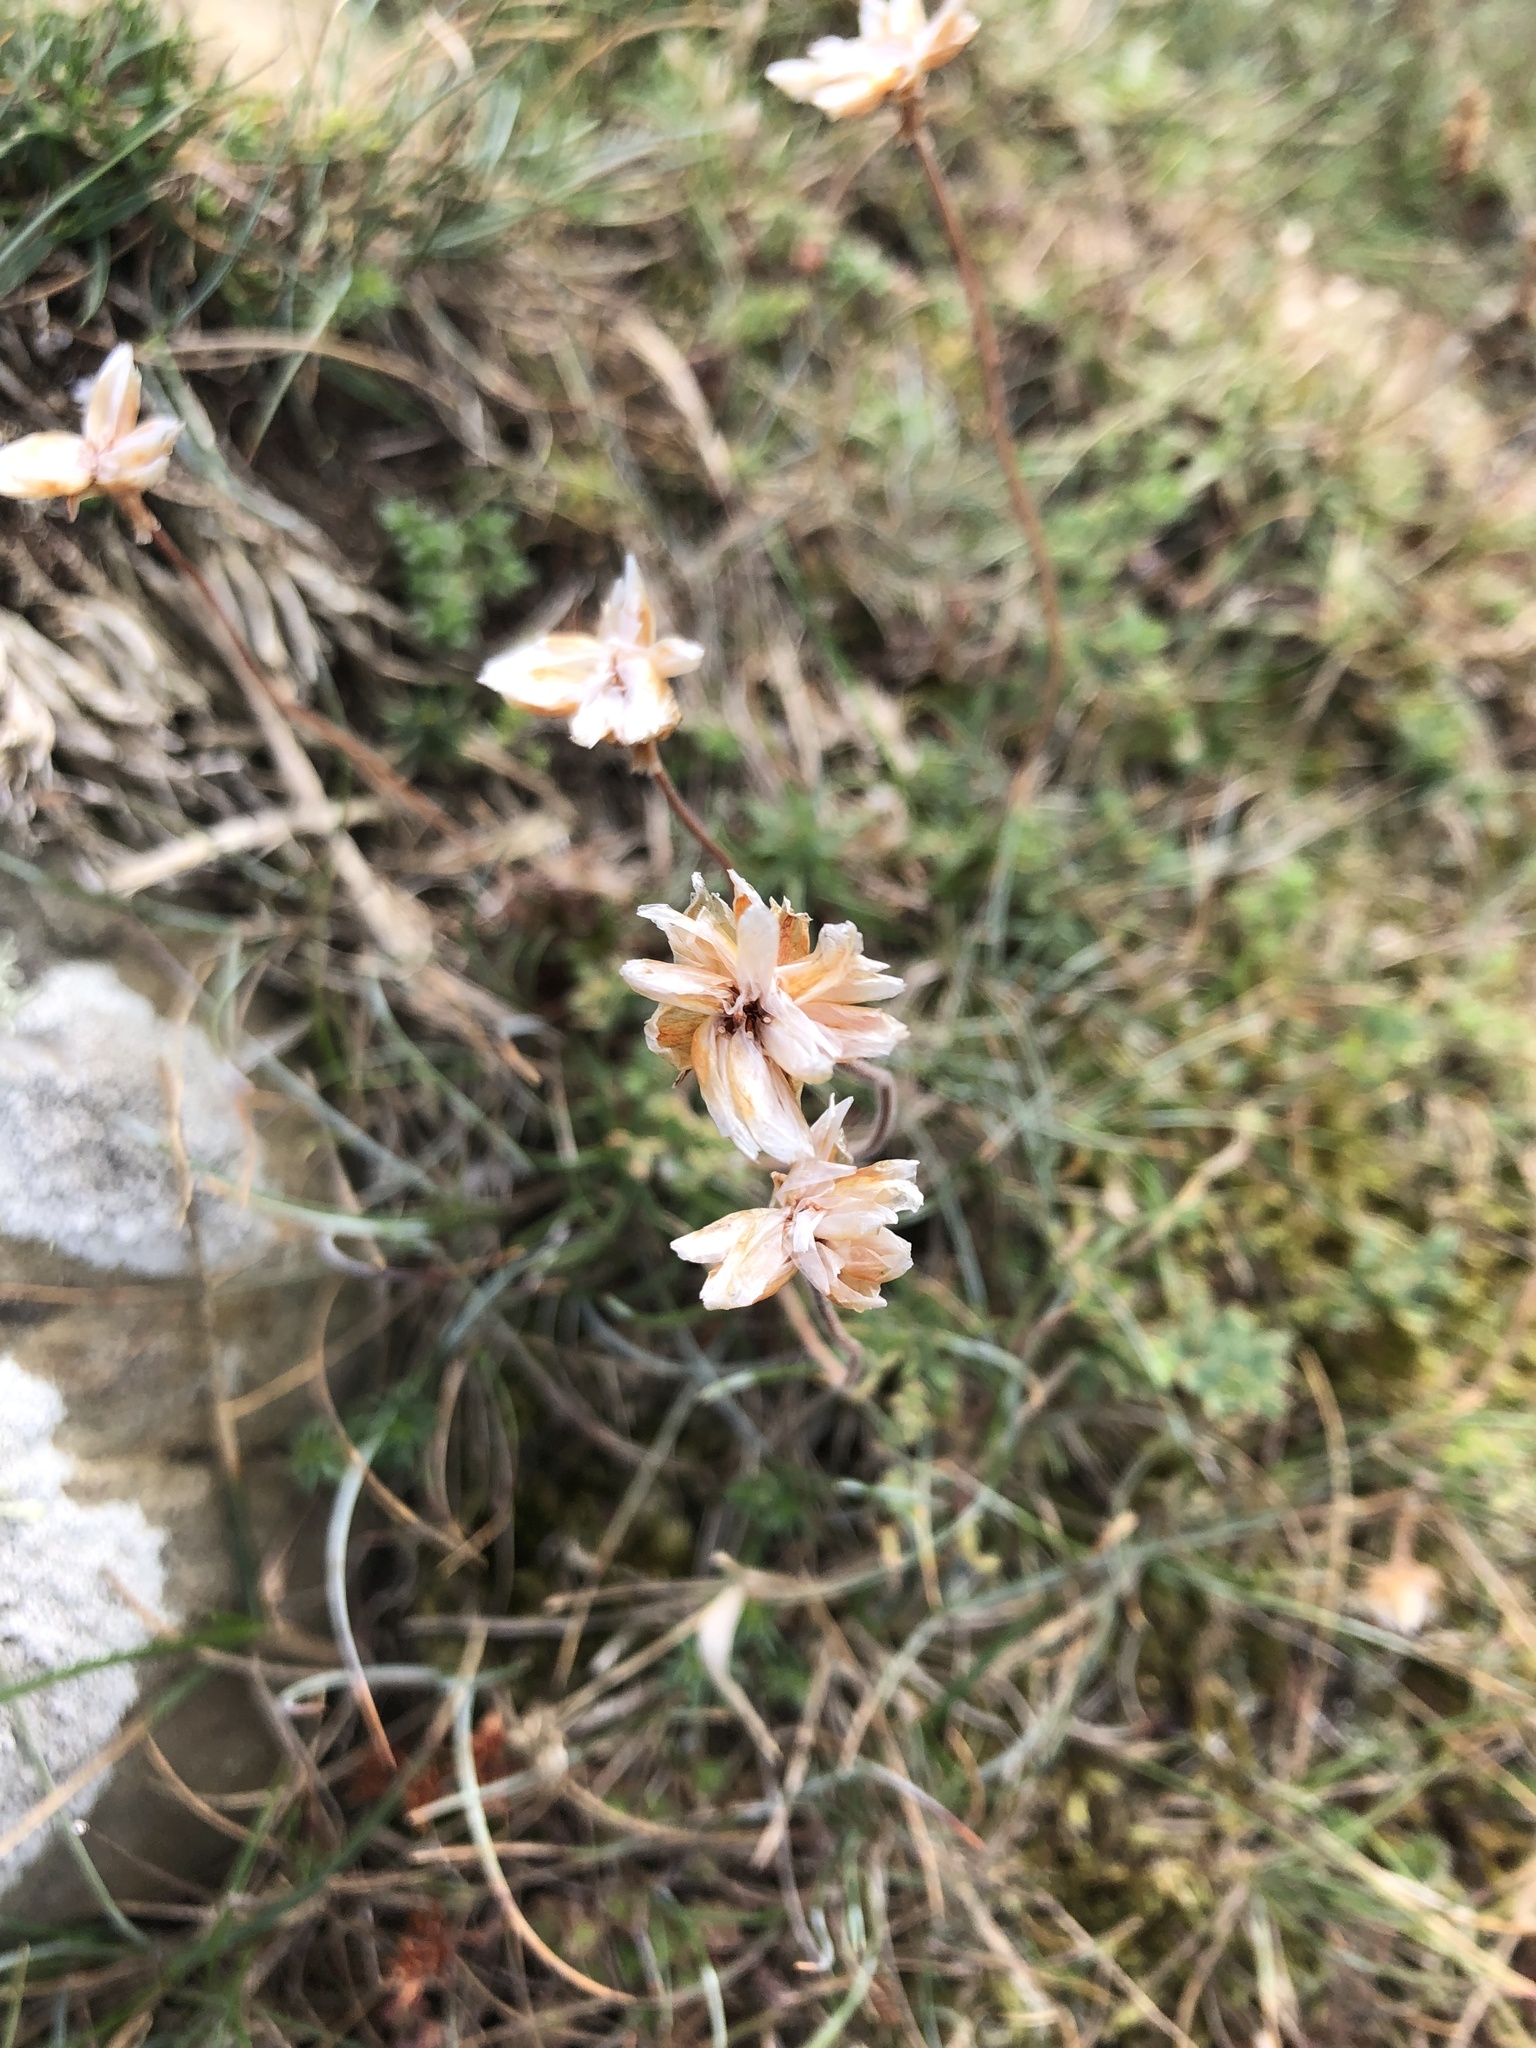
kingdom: Plantae
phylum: Tracheophyta
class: Magnoliopsida
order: Caryophyllales
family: Plumbaginaceae
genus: Armeria
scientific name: Armeria maritima
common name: Thrift
